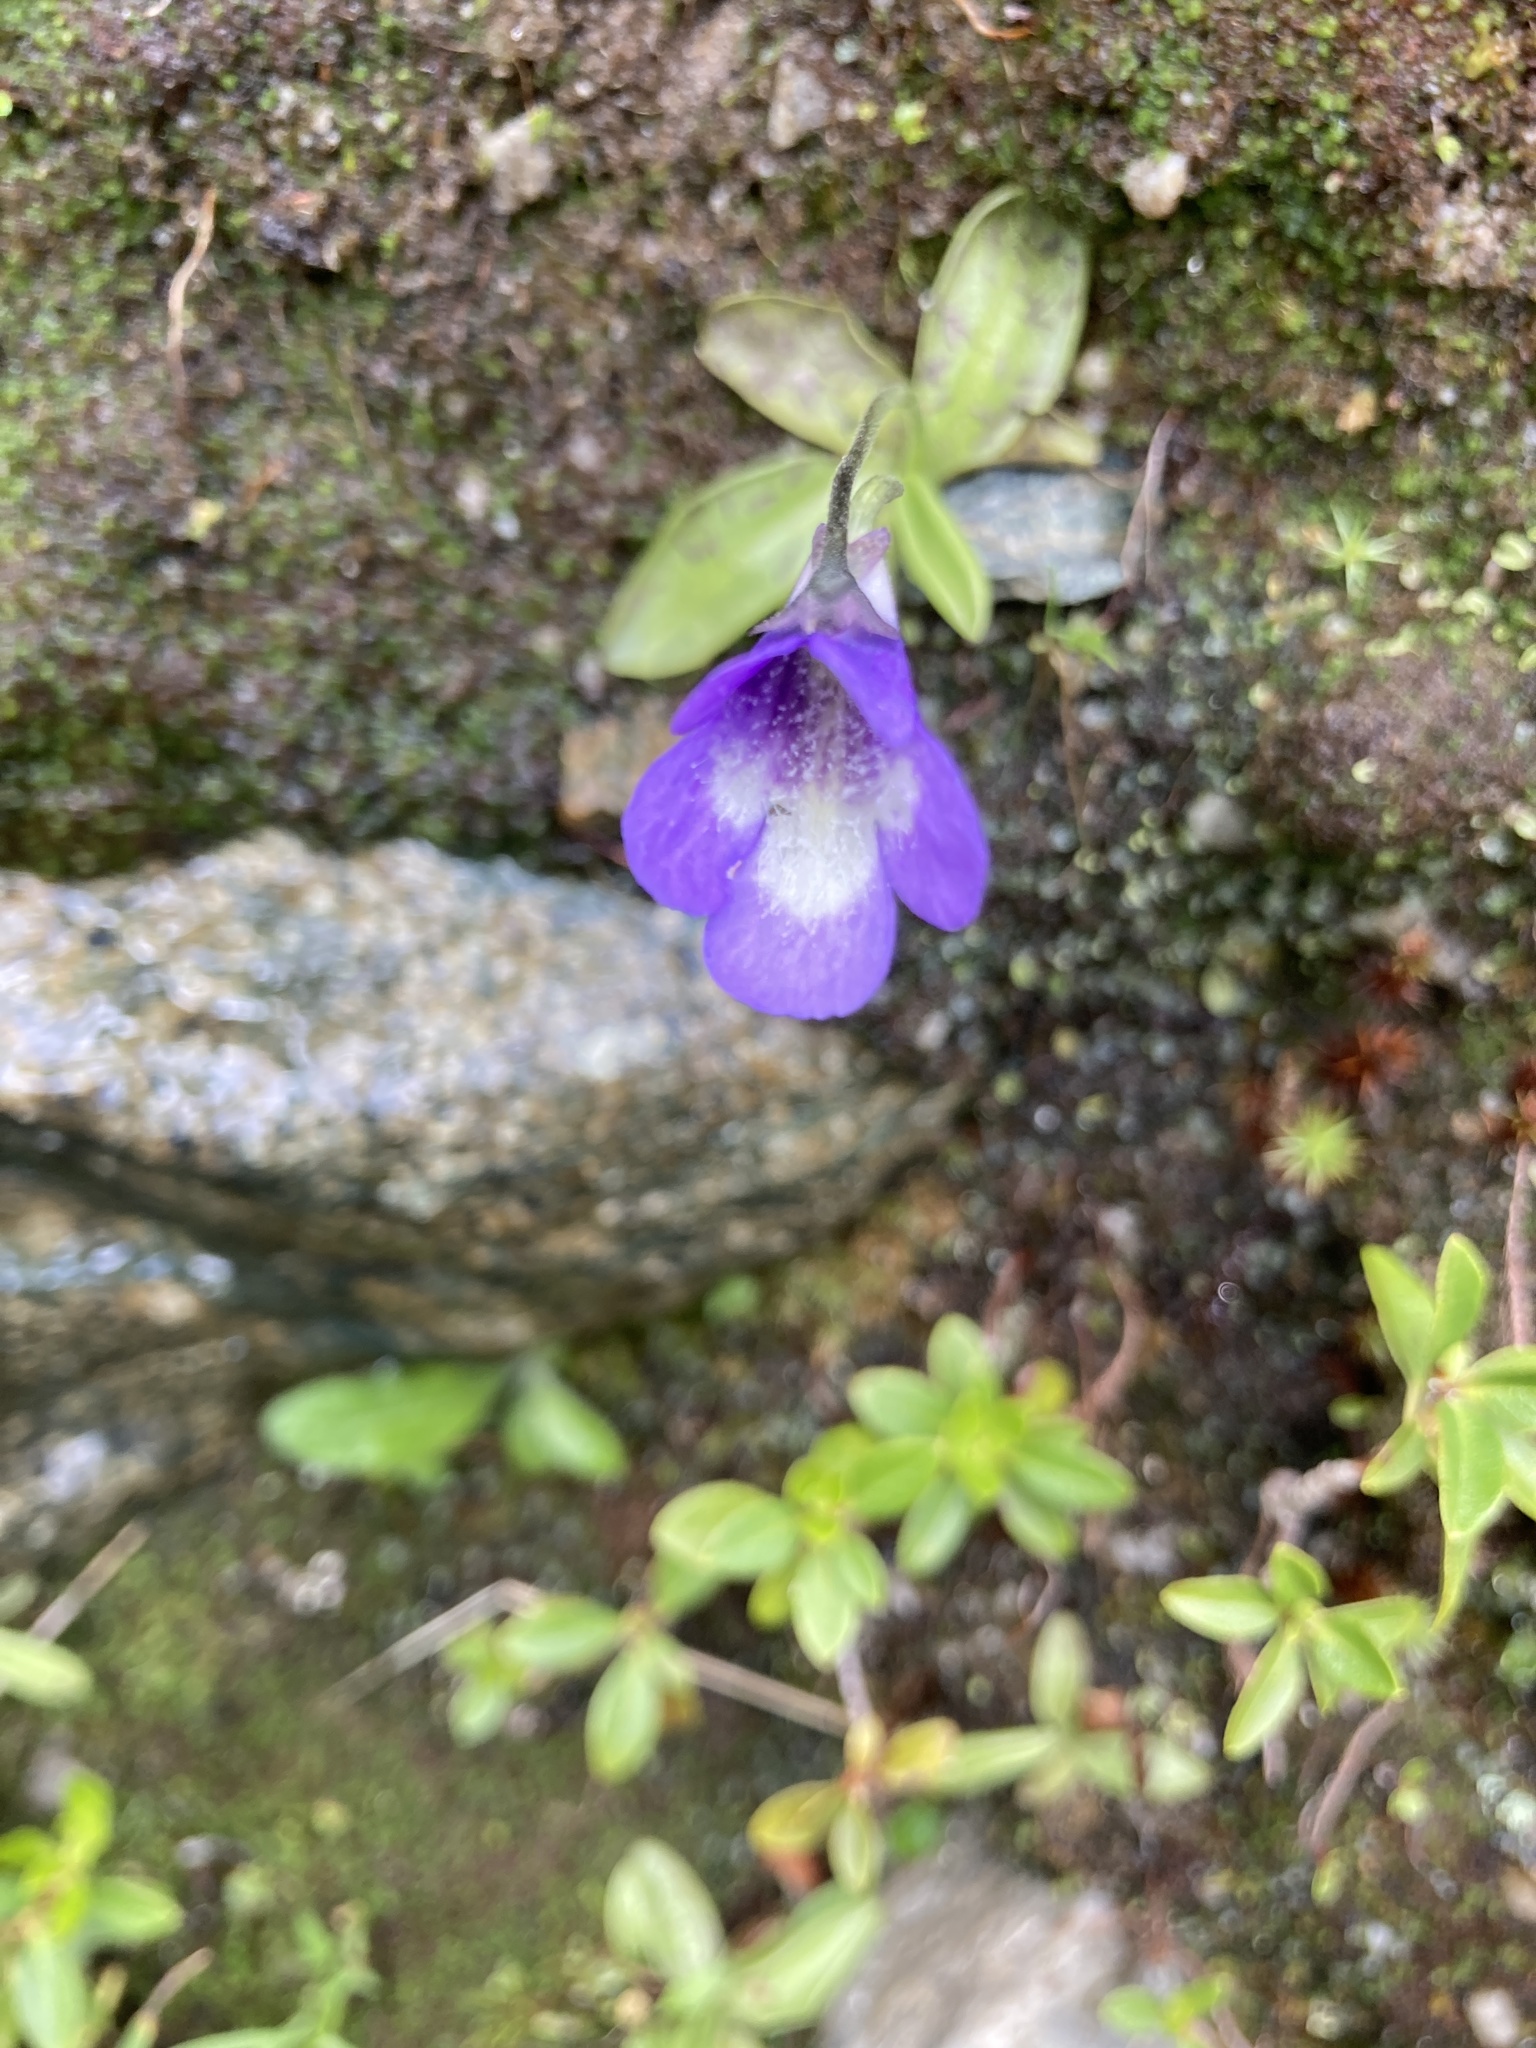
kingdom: Plantae
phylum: Tracheophyta
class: Magnoliopsida
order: Lamiales
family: Lentibulariaceae
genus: Pinguicula
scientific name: Pinguicula leptoceras
